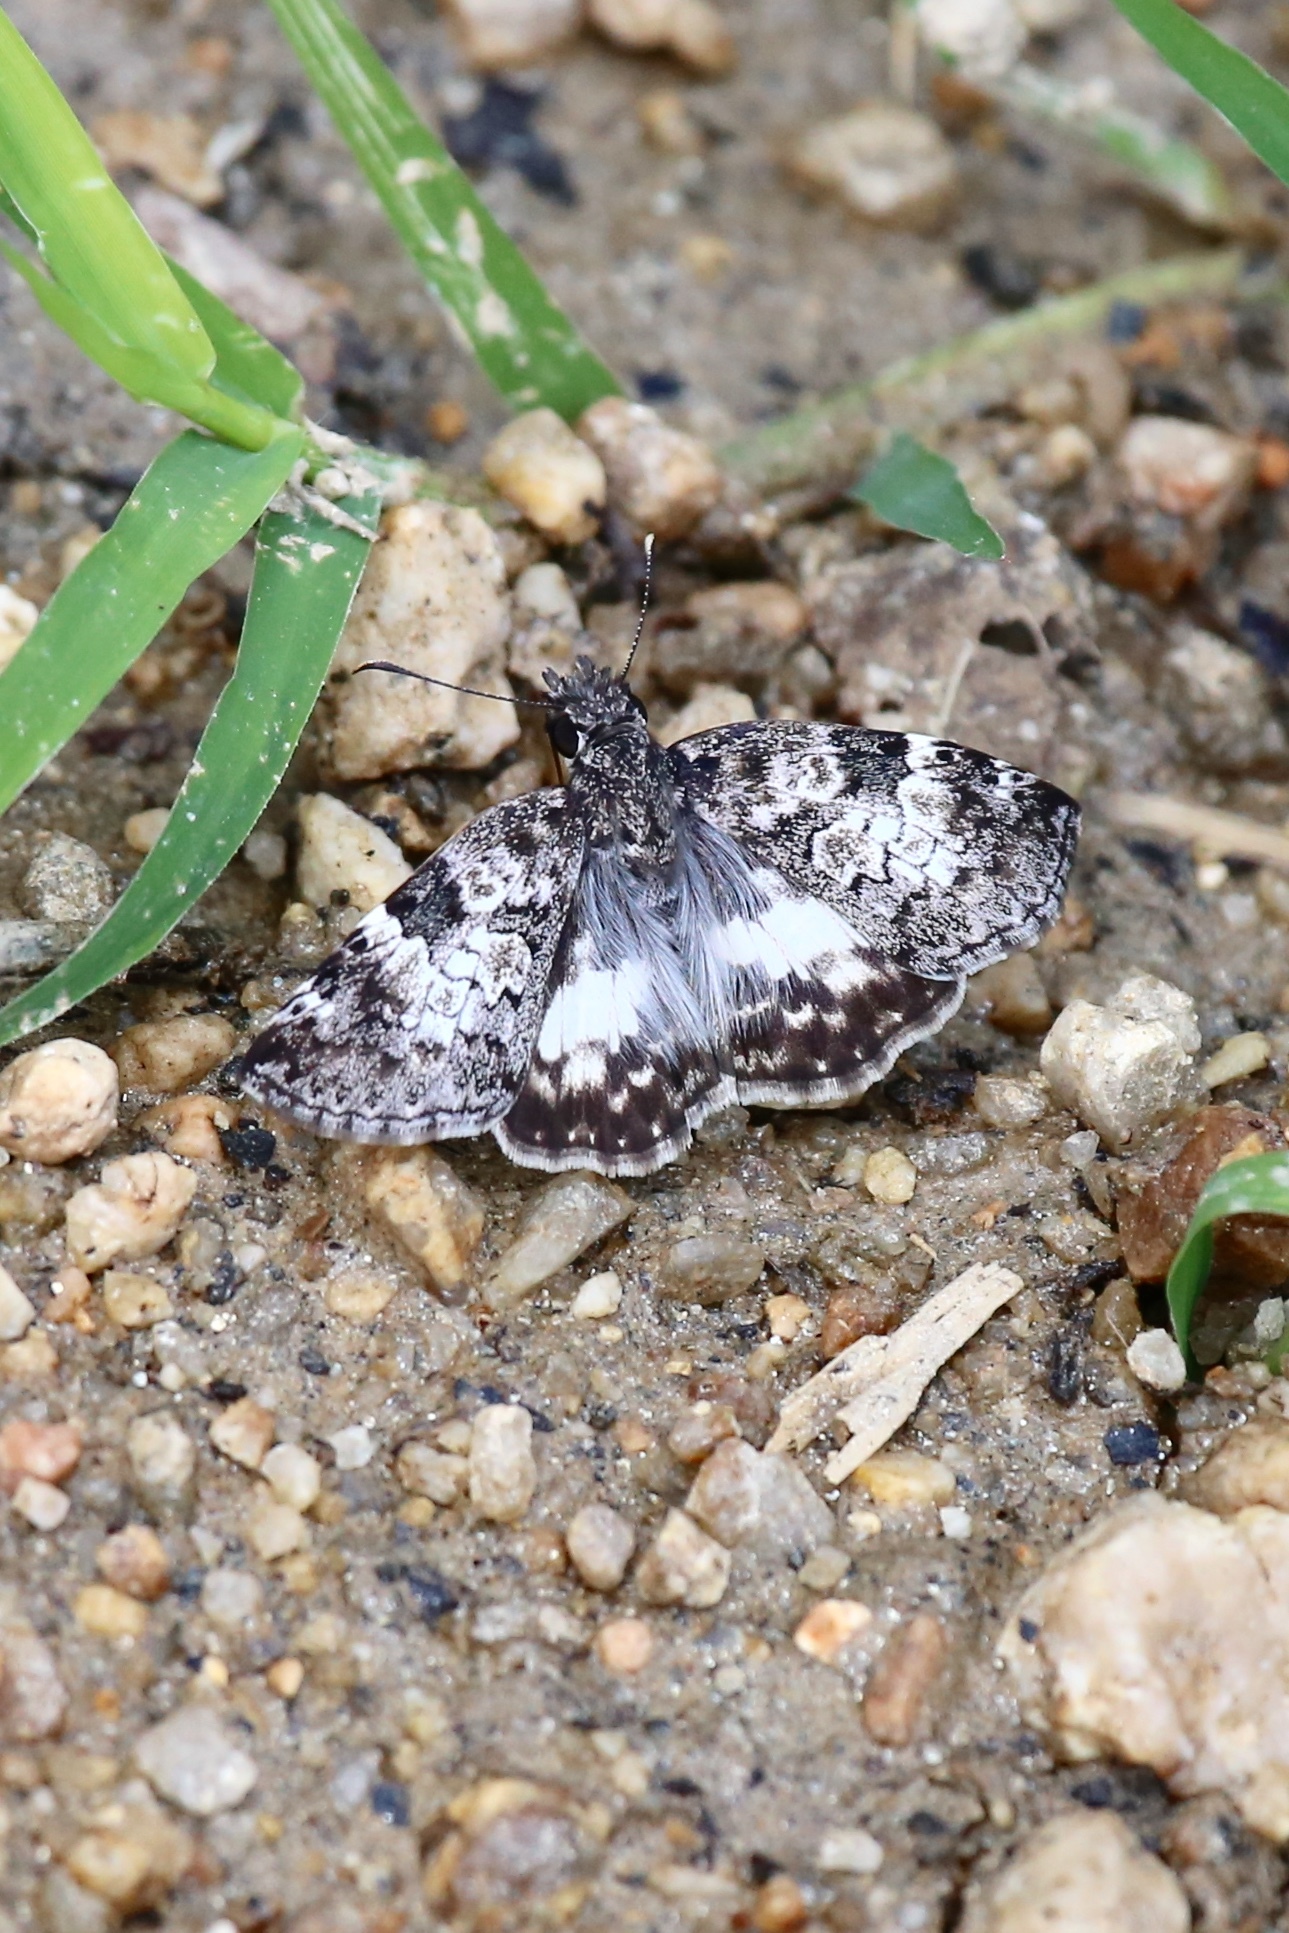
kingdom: Animalia
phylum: Arthropoda
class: Insecta
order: Lepidoptera
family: Hesperiidae
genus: Chiothion
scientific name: Chiothion georgina
